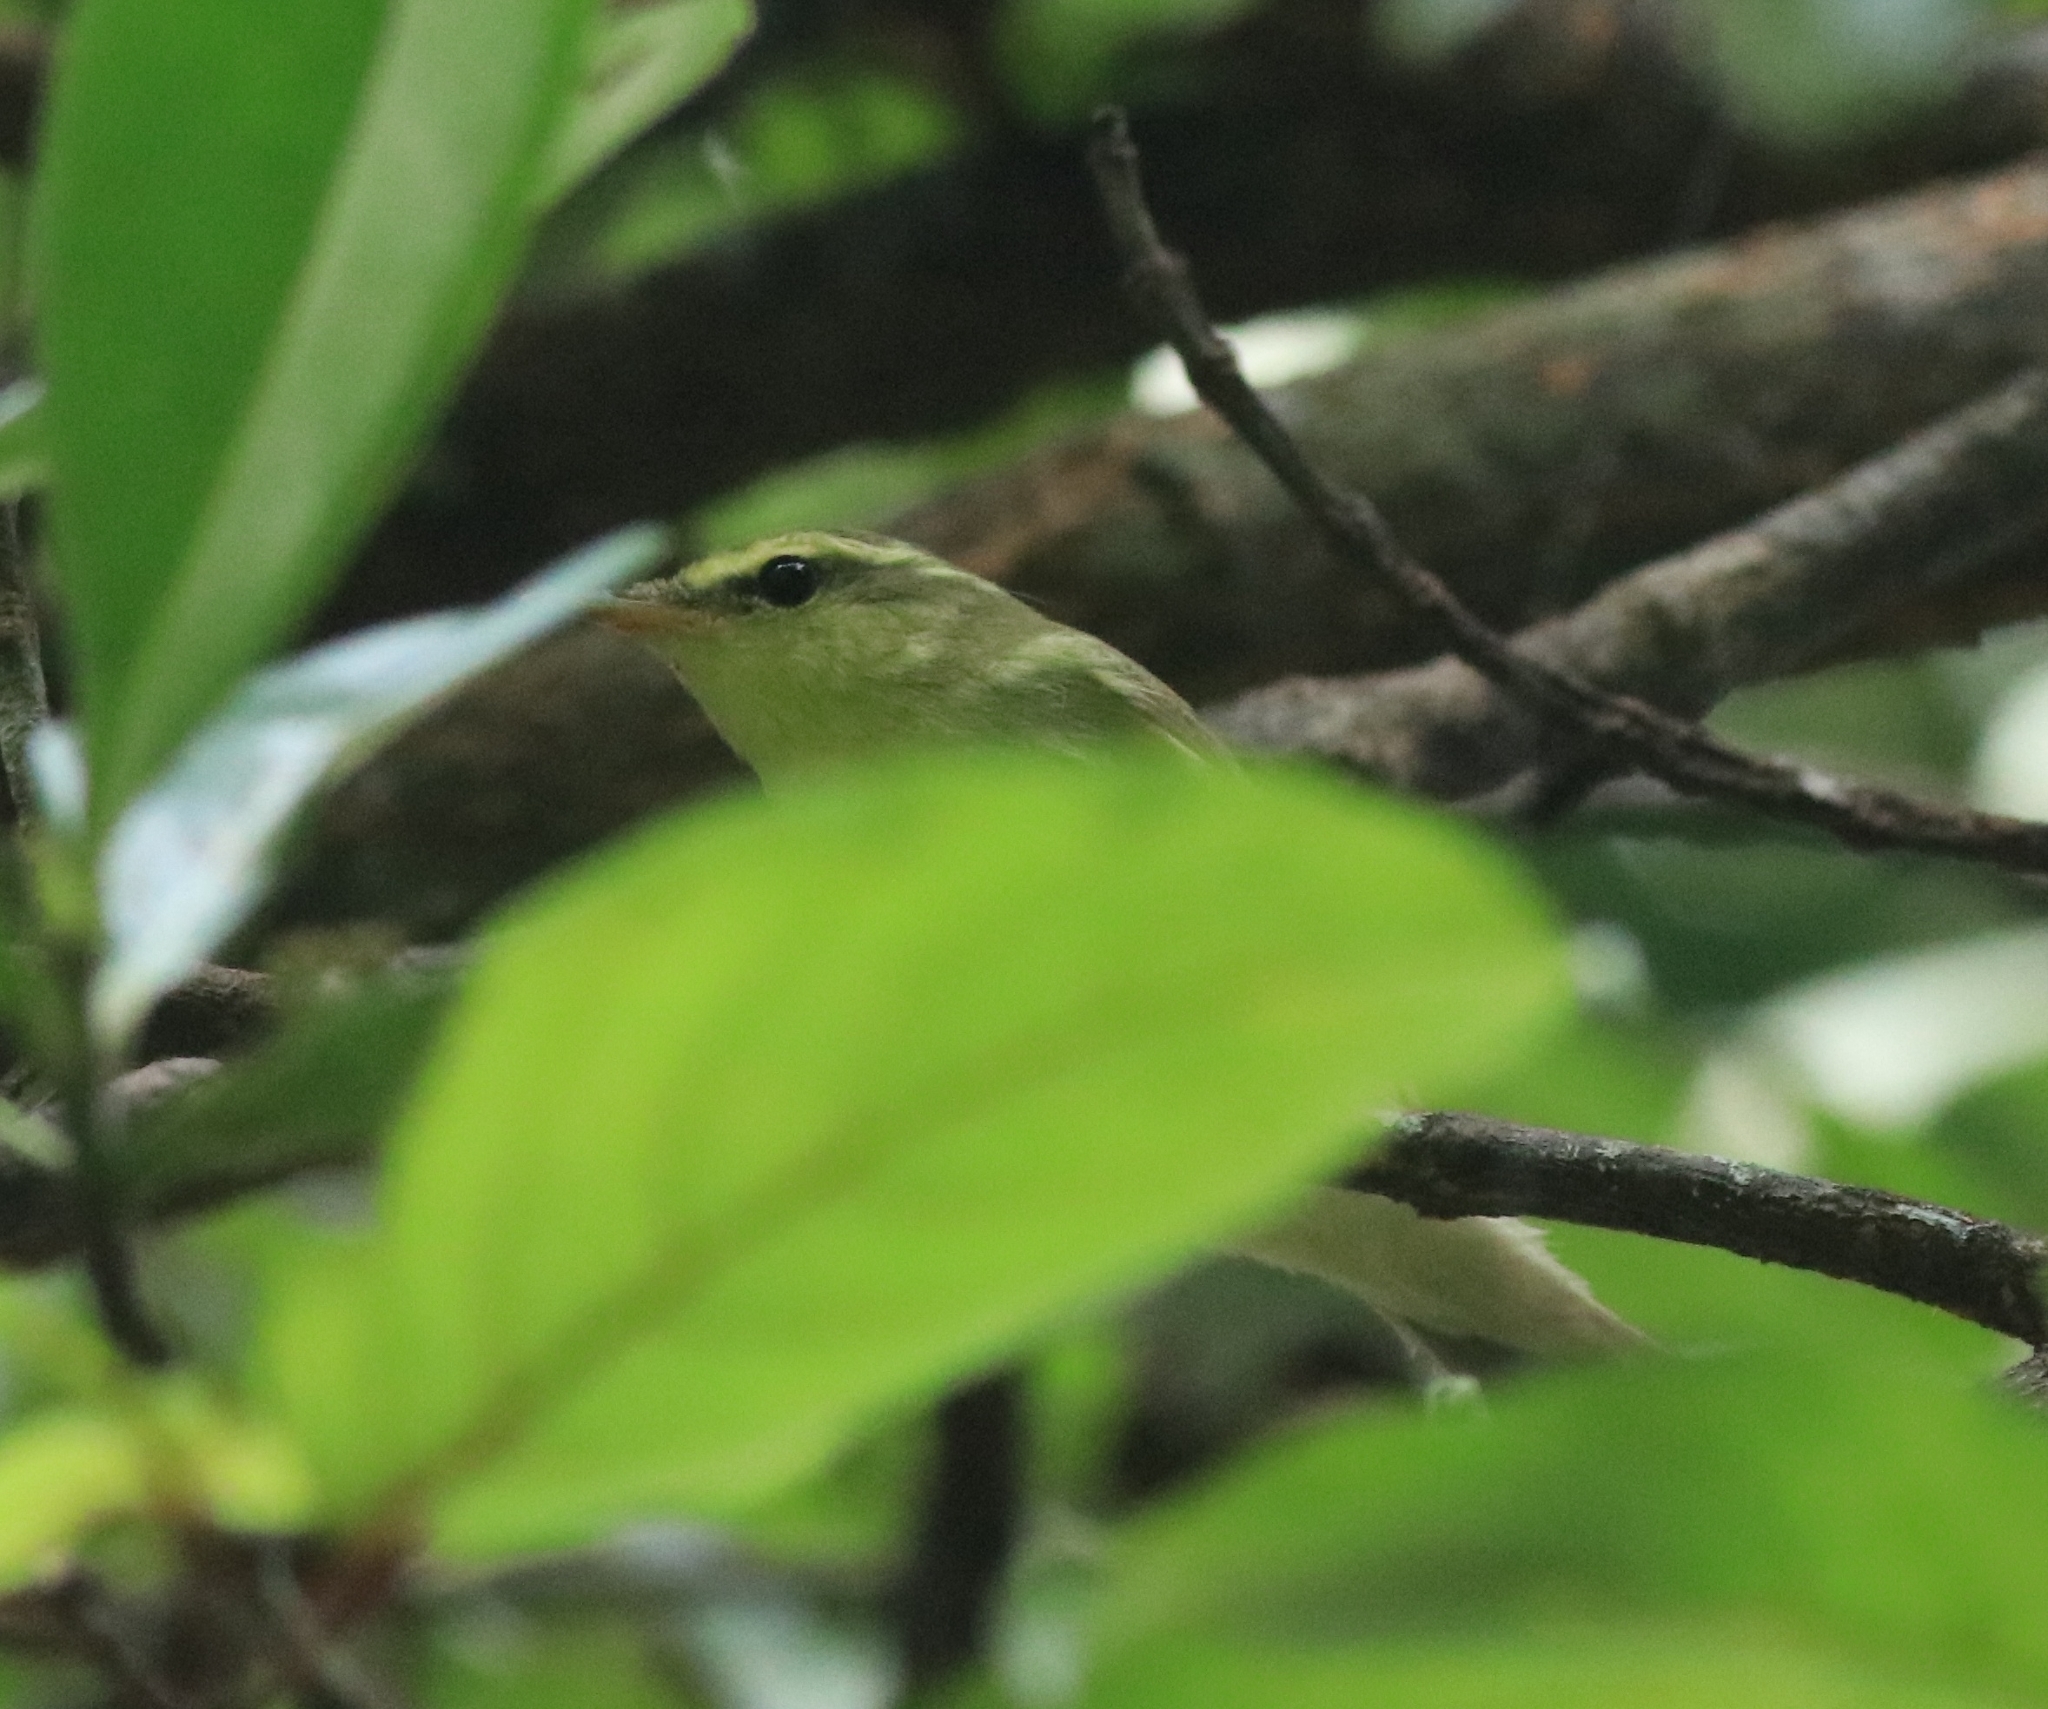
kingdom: Animalia
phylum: Chordata
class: Aves
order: Passeriformes
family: Phylloscopidae
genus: Phylloscopus
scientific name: Phylloscopus nitidus
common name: Green warbler
